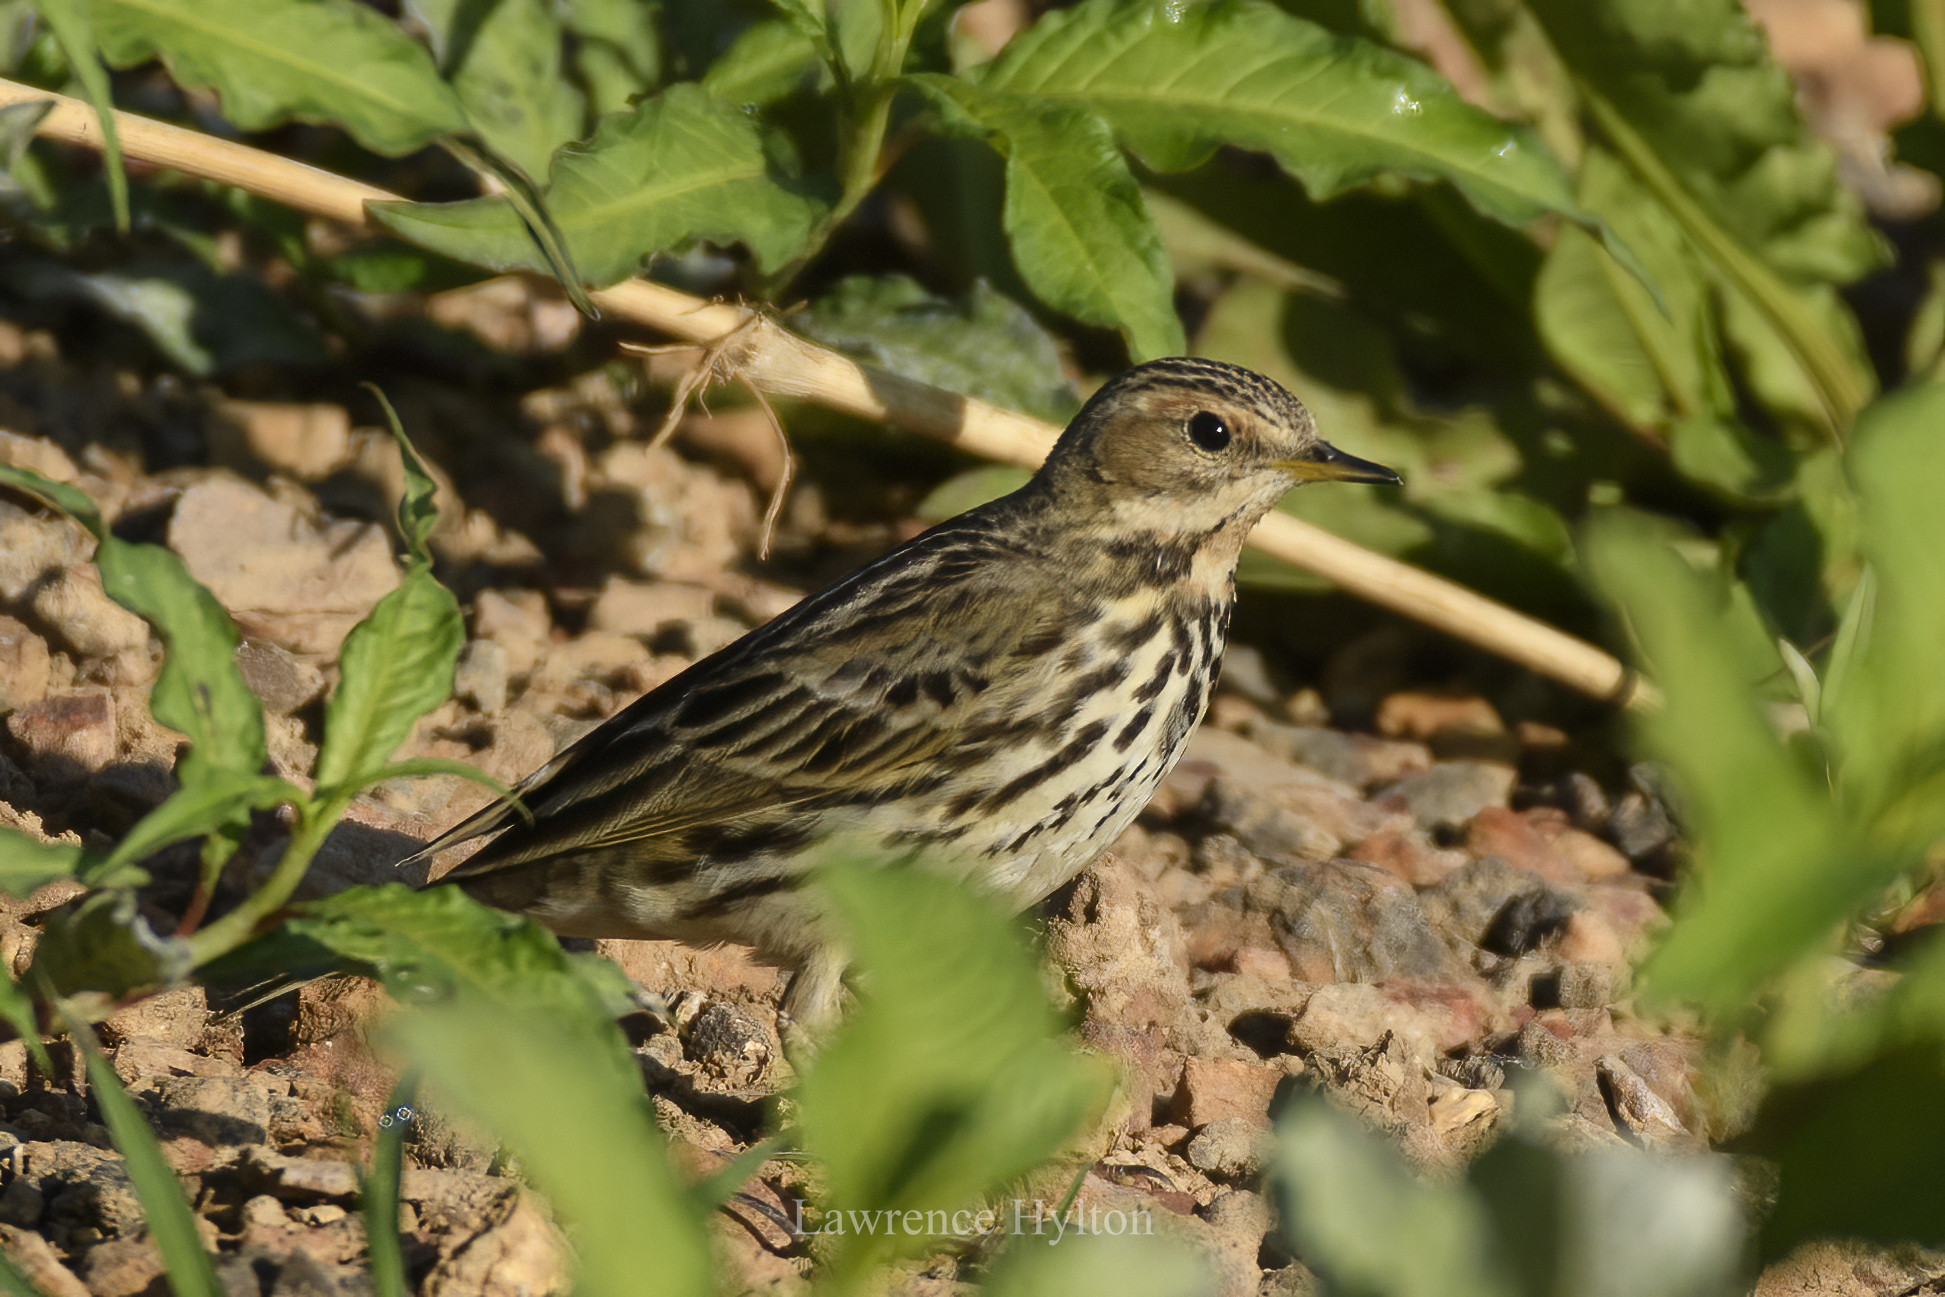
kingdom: Animalia
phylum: Chordata
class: Aves
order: Passeriformes
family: Motacillidae
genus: Anthus
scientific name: Anthus cervinus
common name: Red-throated pipit
